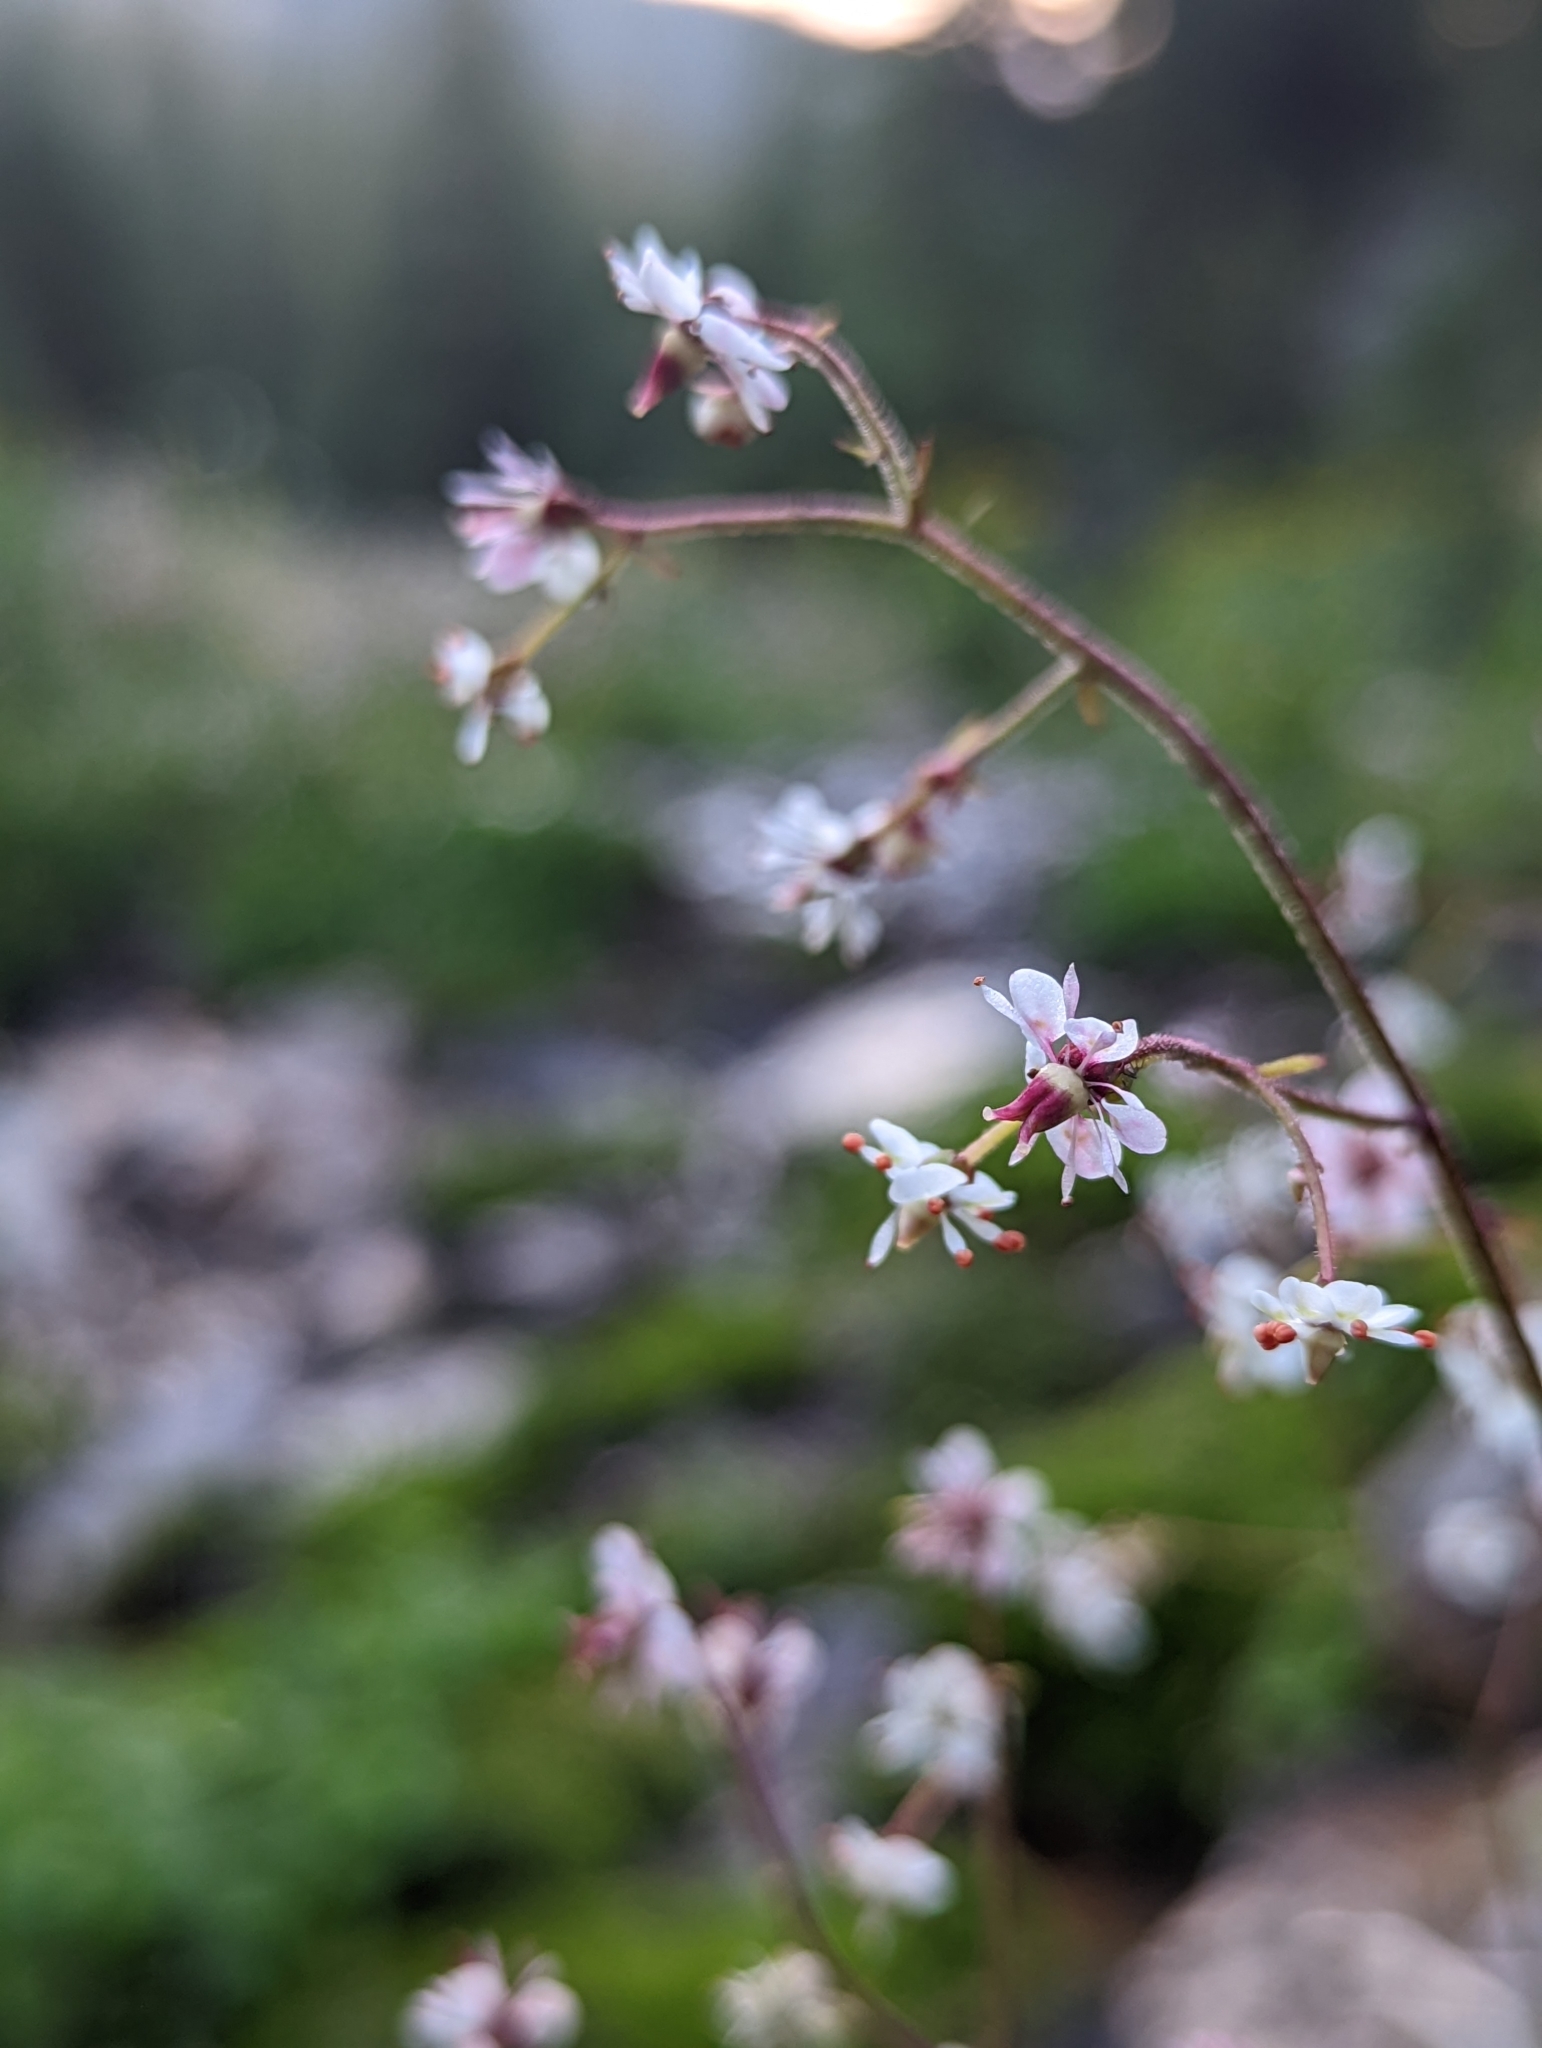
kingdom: Plantae
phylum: Tracheophyta
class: Magnoliopsida
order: Saxifragales
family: Saxifragaceae
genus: Micranthes
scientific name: Micranthes odontoloma
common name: Brook saxifrage
